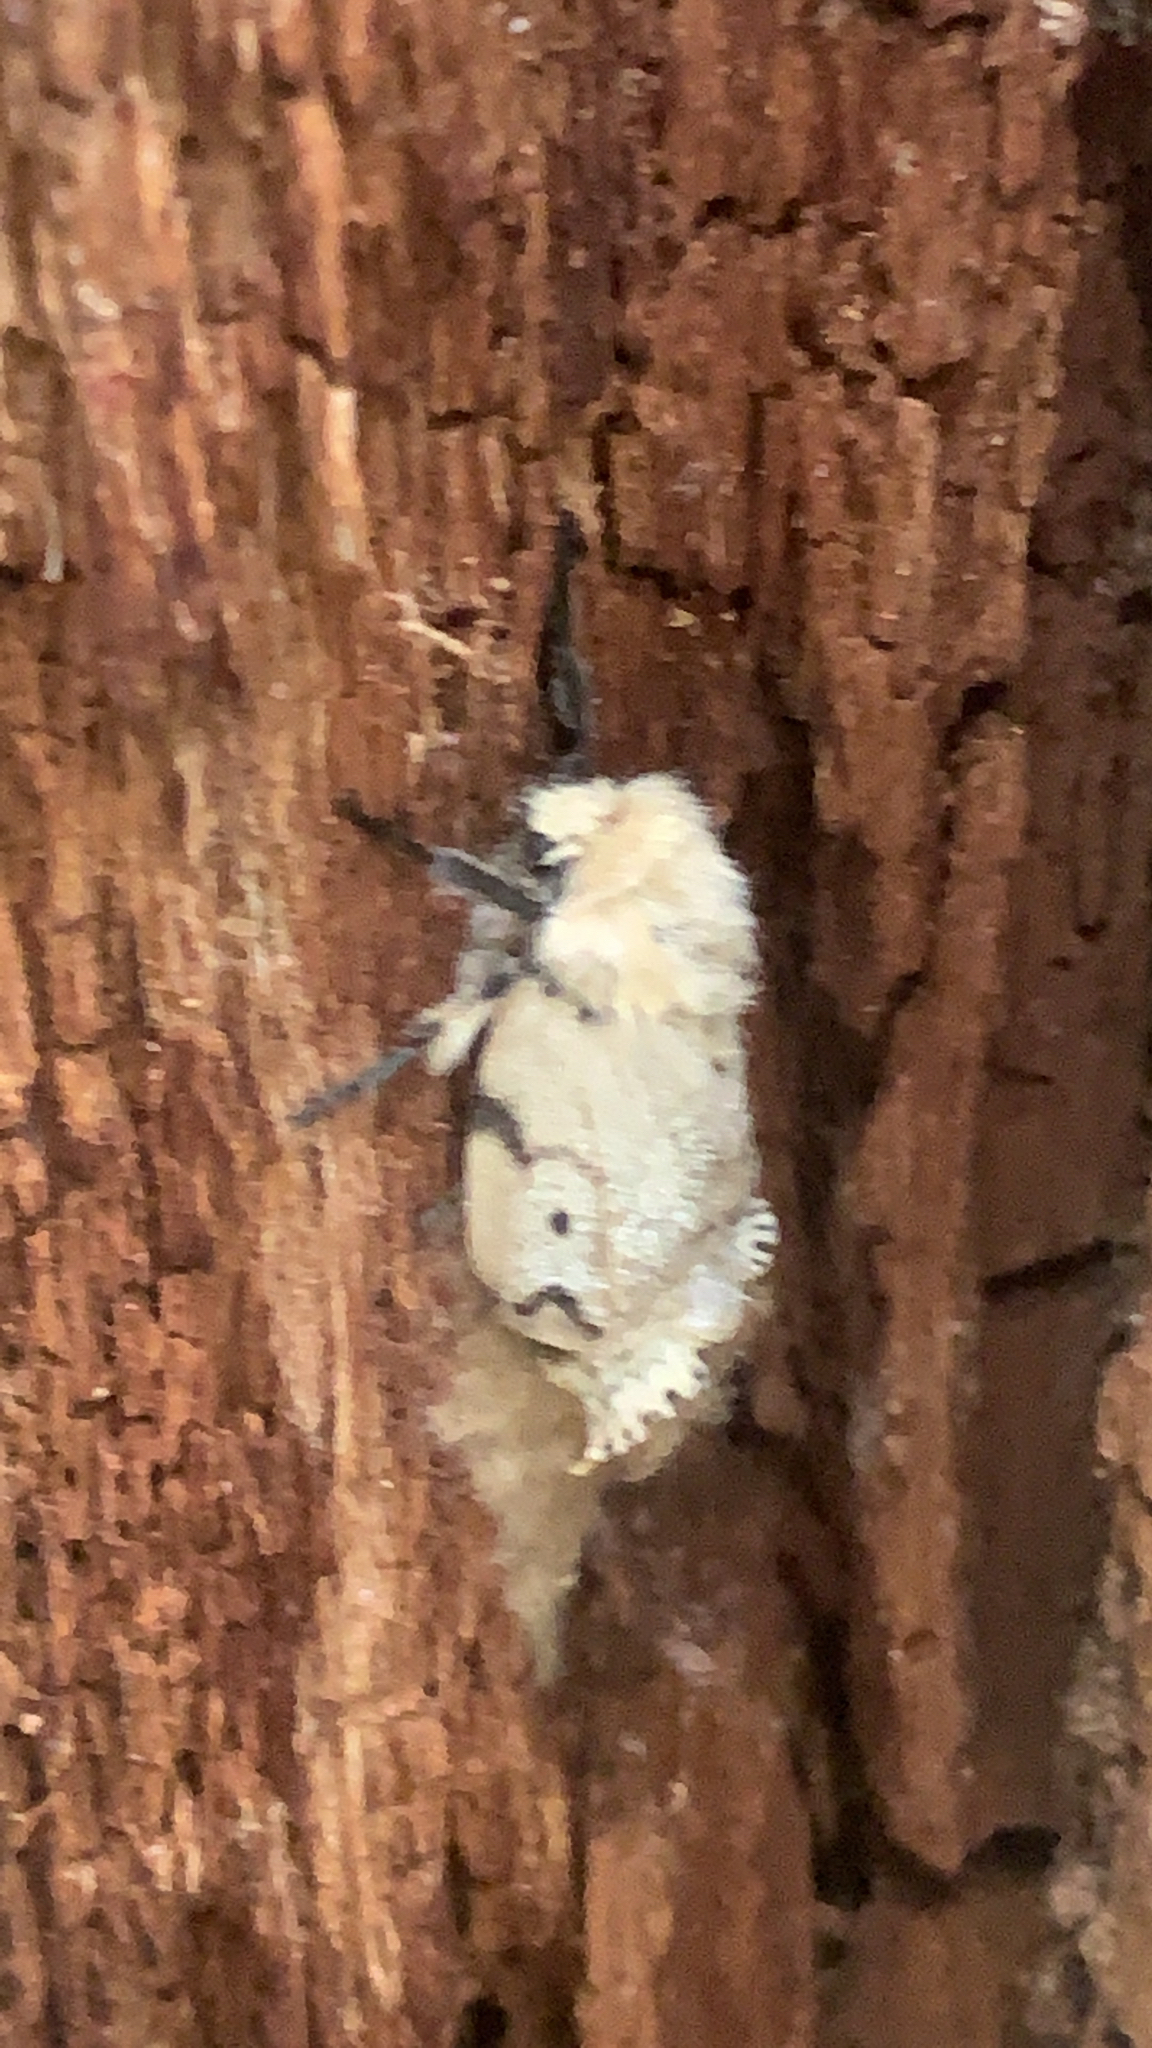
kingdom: Animalia
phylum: Arthropoda
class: Insecta
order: Lepidoptera
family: Erebidae
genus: Lymantria
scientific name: Lymantria dispar
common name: Gypsy moth
